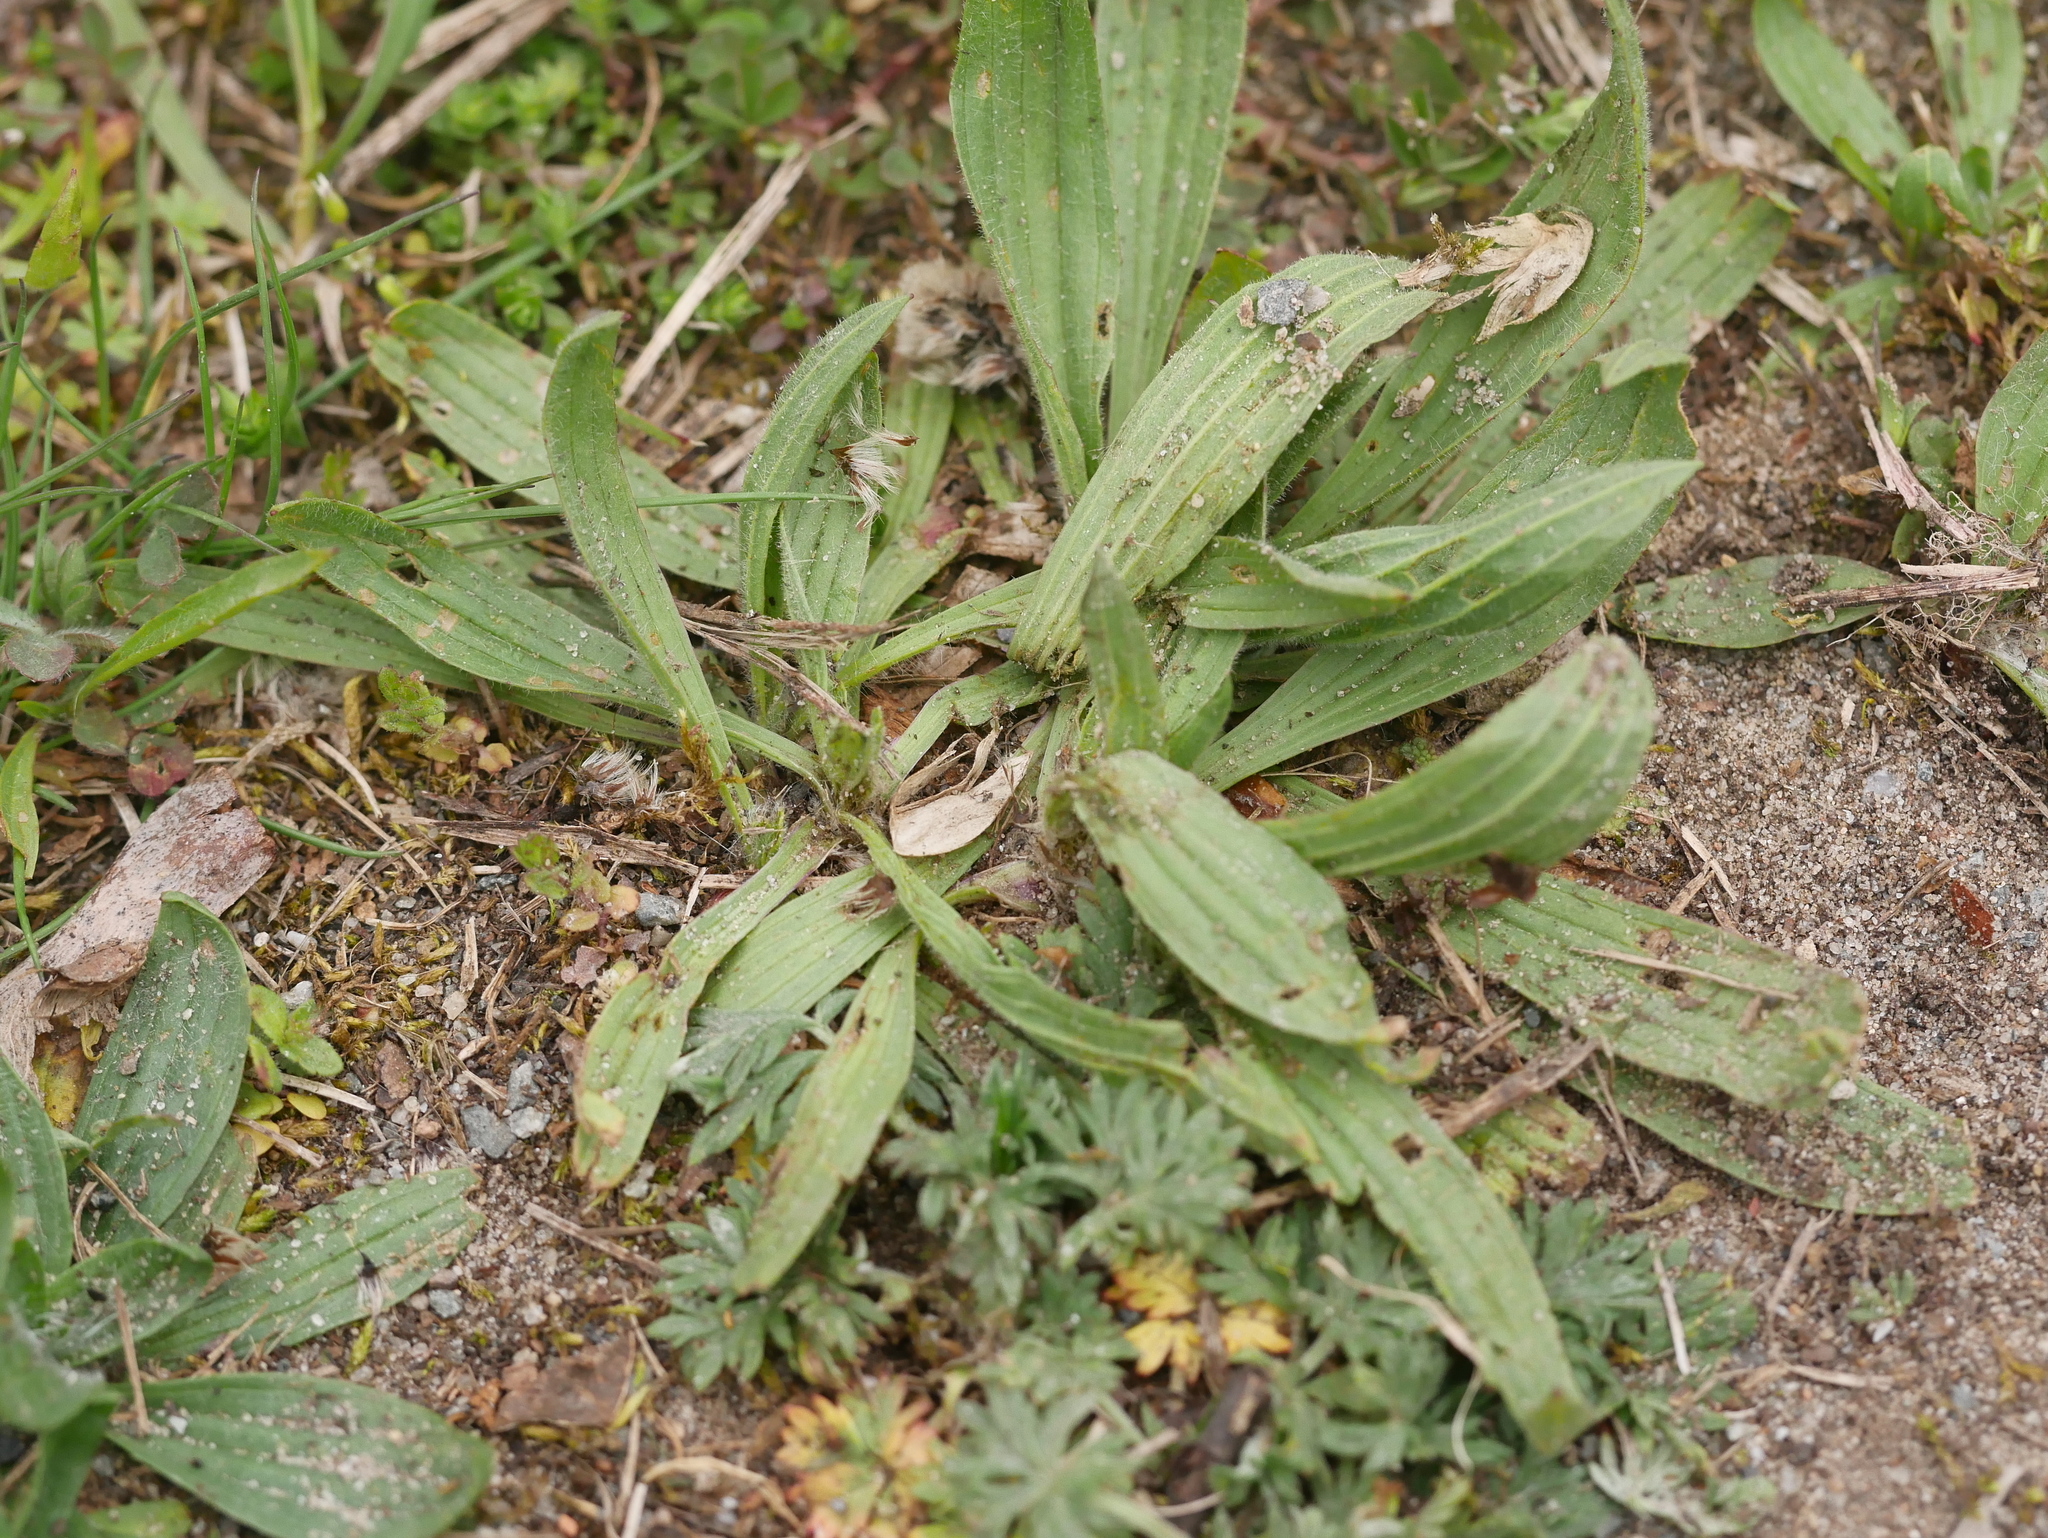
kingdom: Plantae
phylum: Tracheophyta
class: Magnoliopsida
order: Lamiales
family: Plantaginaceae
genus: Plantago
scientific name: Plantago lanceolata
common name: Ribwort plantain
